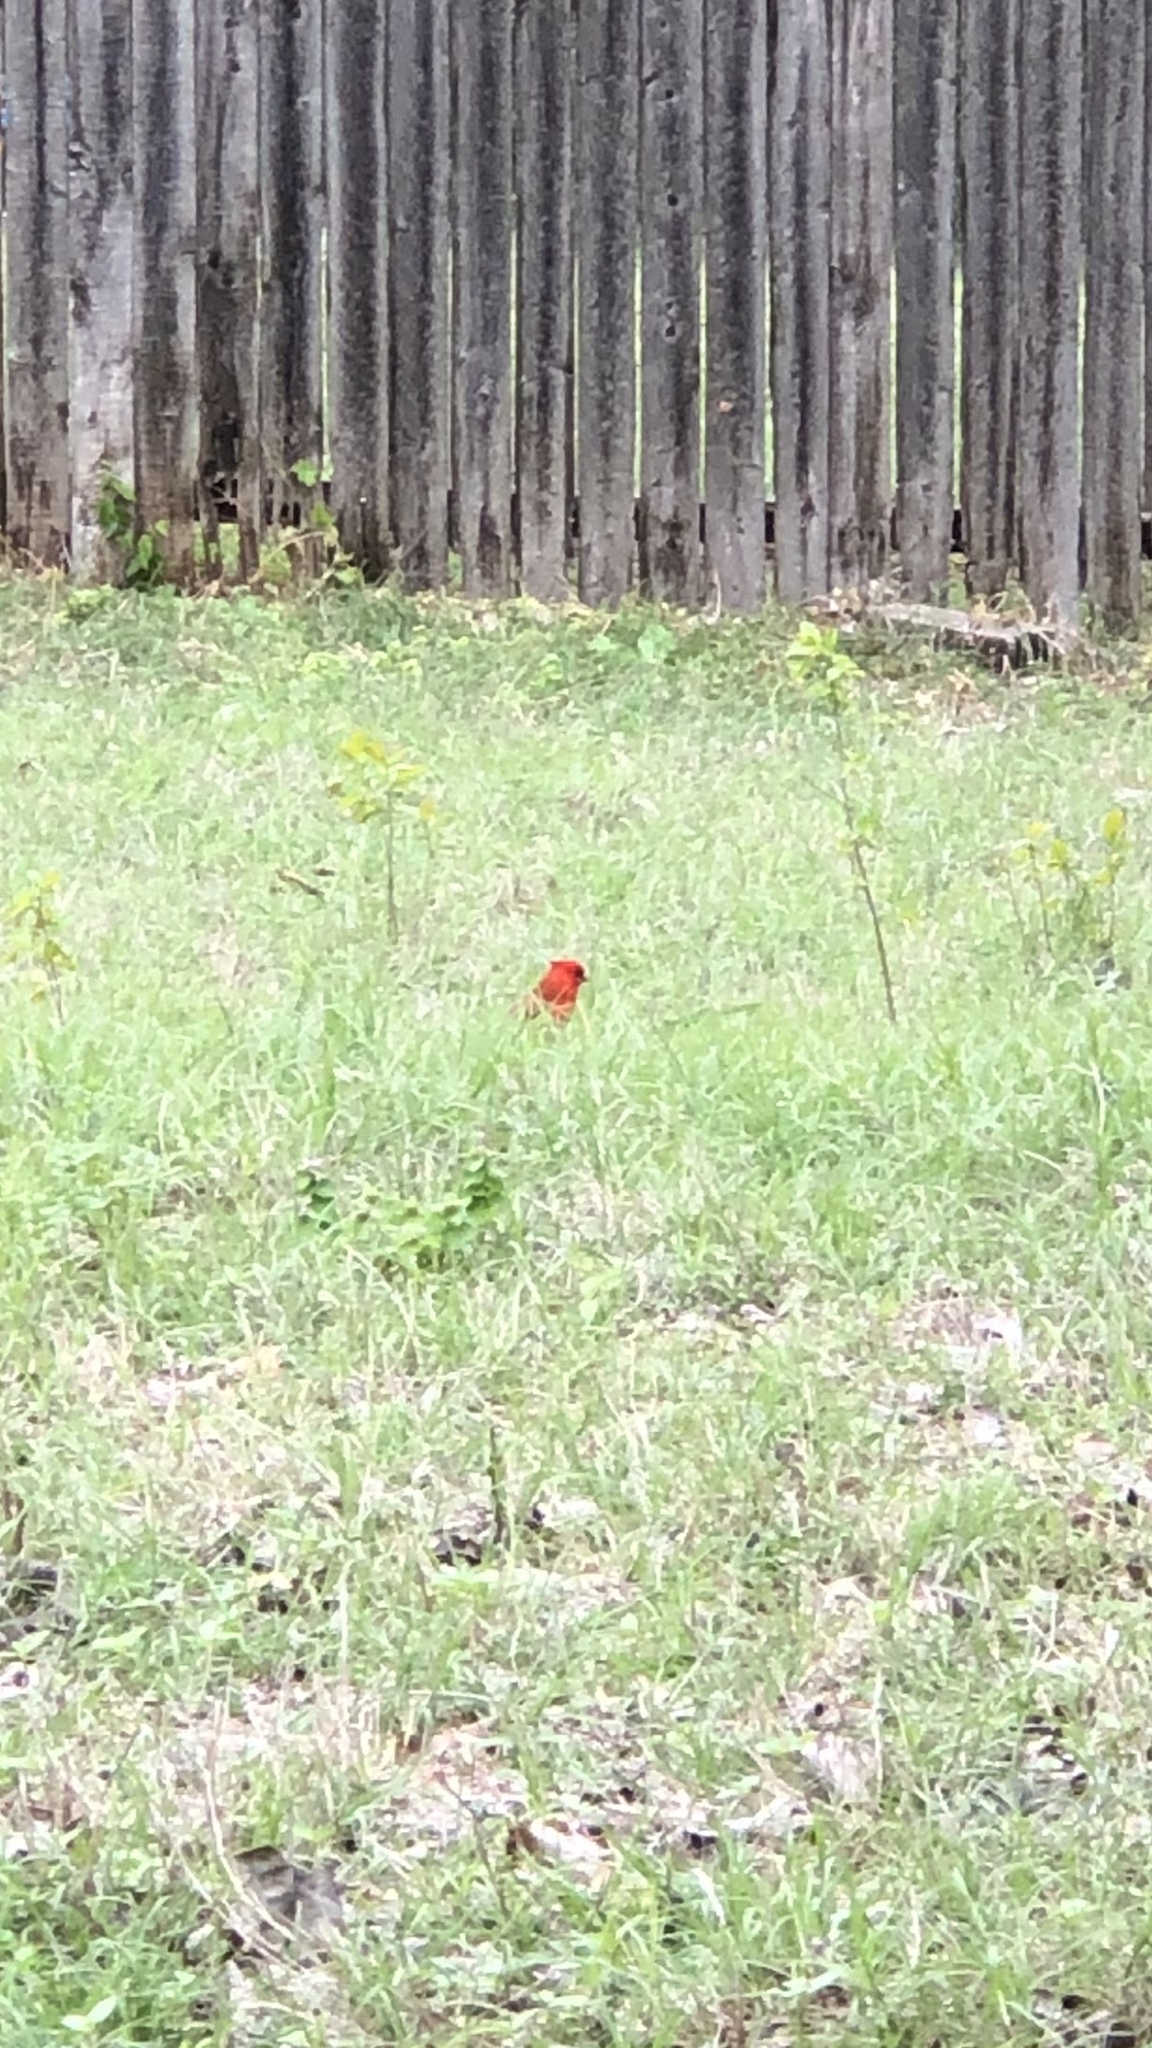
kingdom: Animalia
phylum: Chordata
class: Aves
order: Passeriformes
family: Cardinalidae
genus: Cardinalis
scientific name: Cardinalis cardinalis
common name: Northern cardinal
